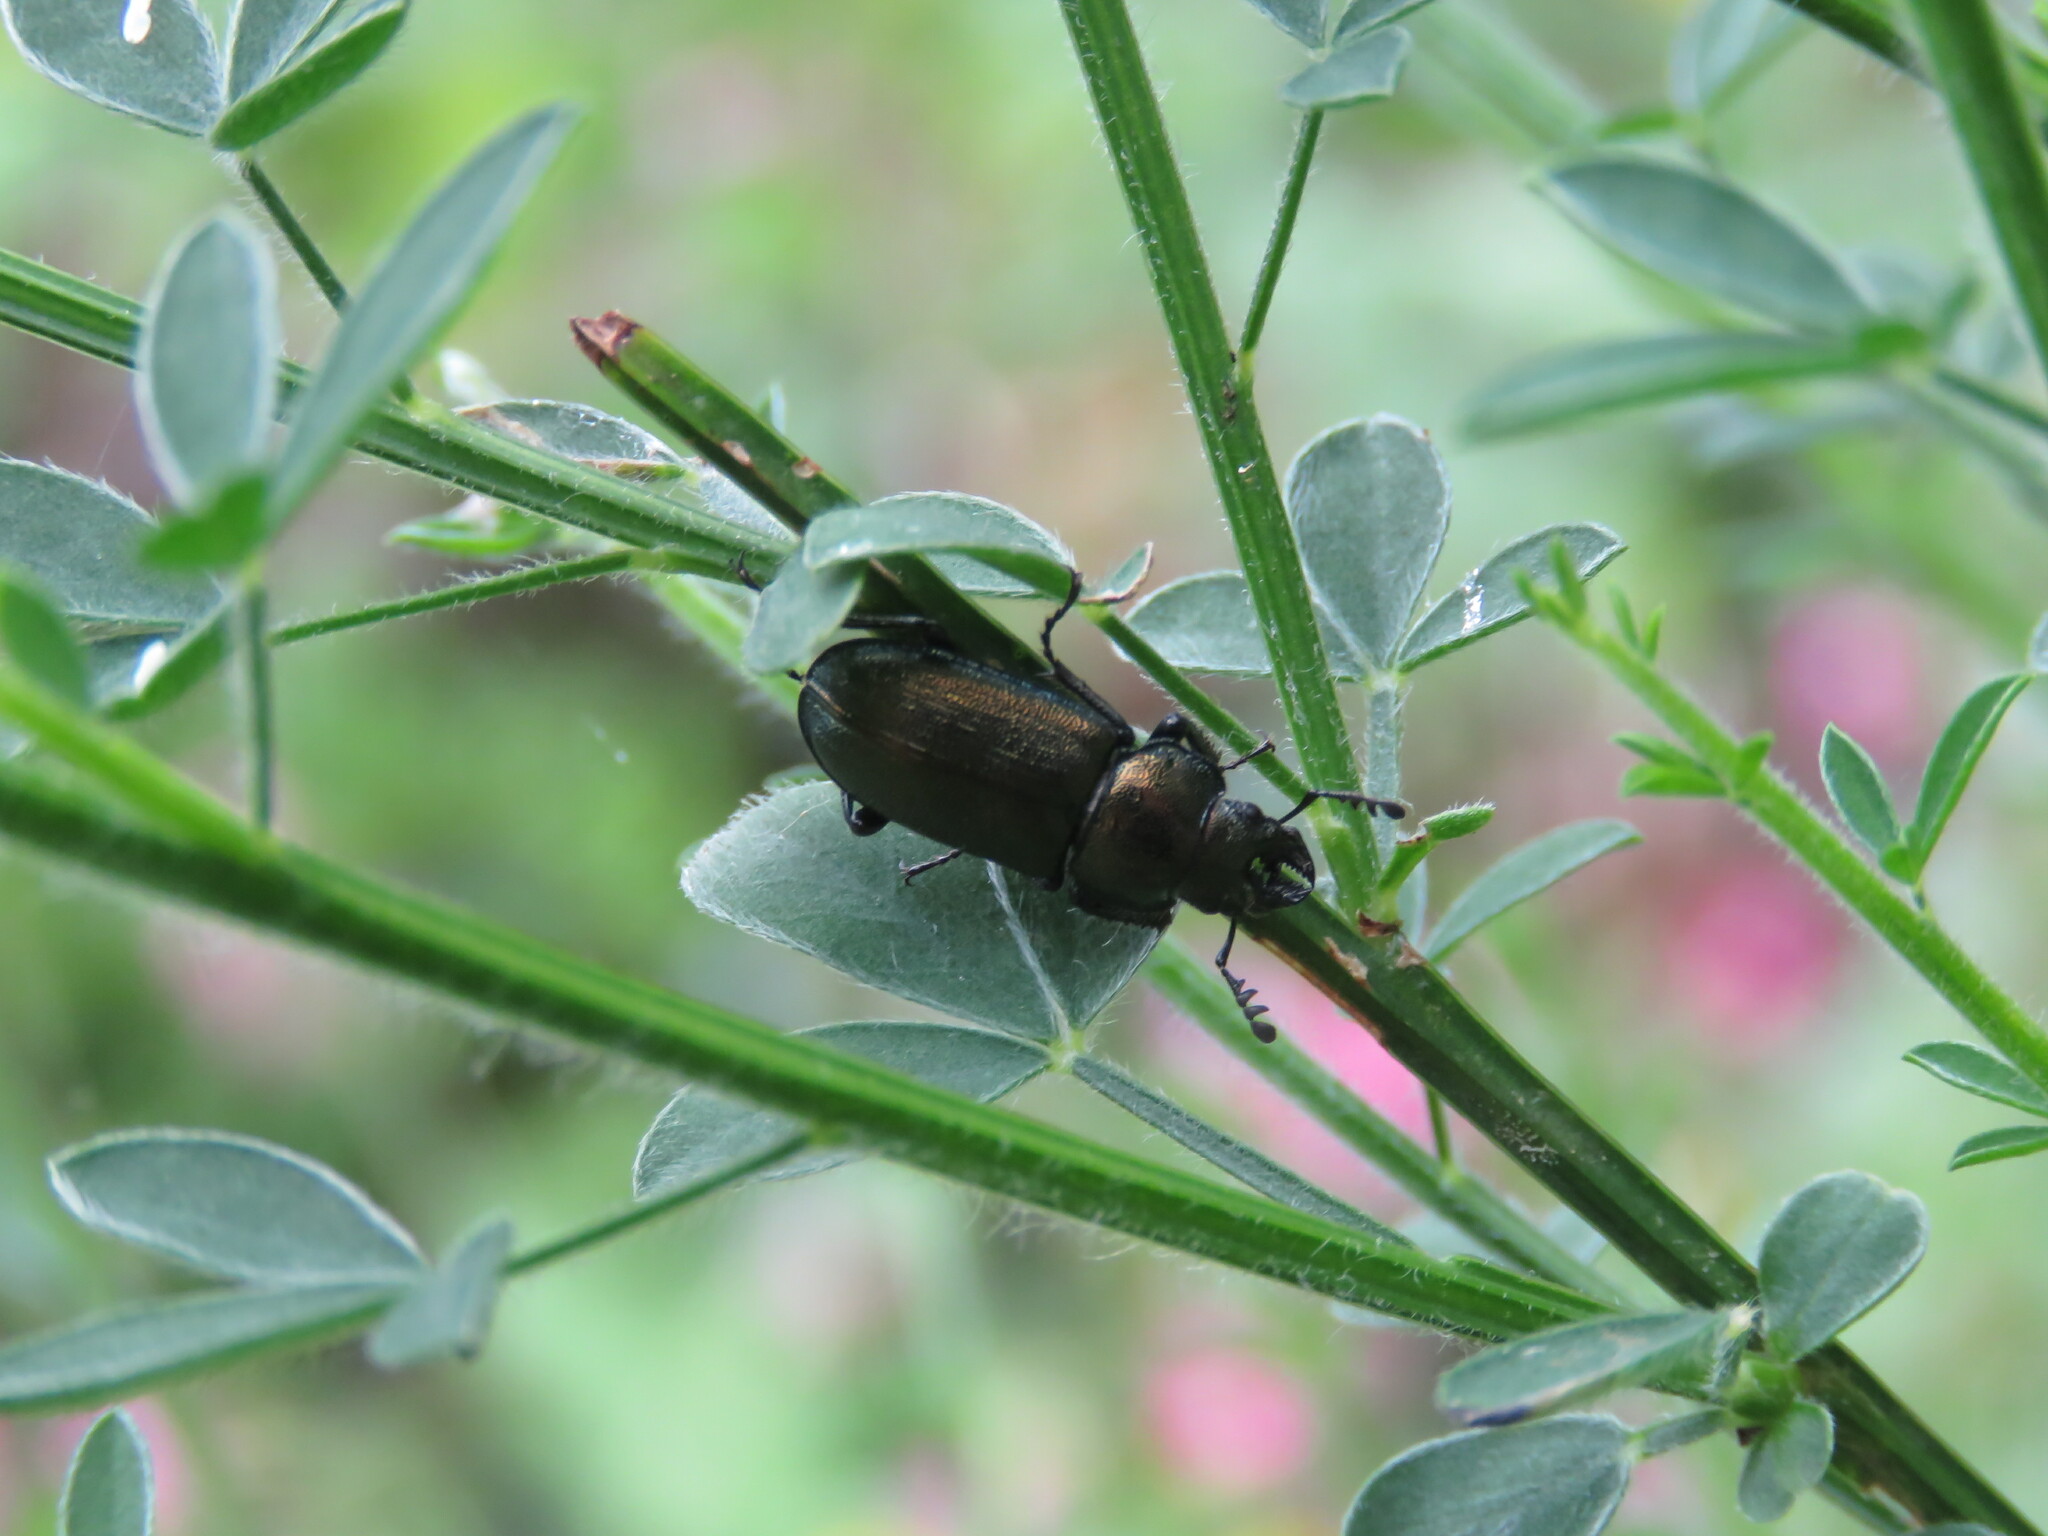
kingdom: Animalia
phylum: Arthropoda
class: Insecta
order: Coleoptera
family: Lucanidae
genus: Platycerus
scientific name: Platycerus spinifer
